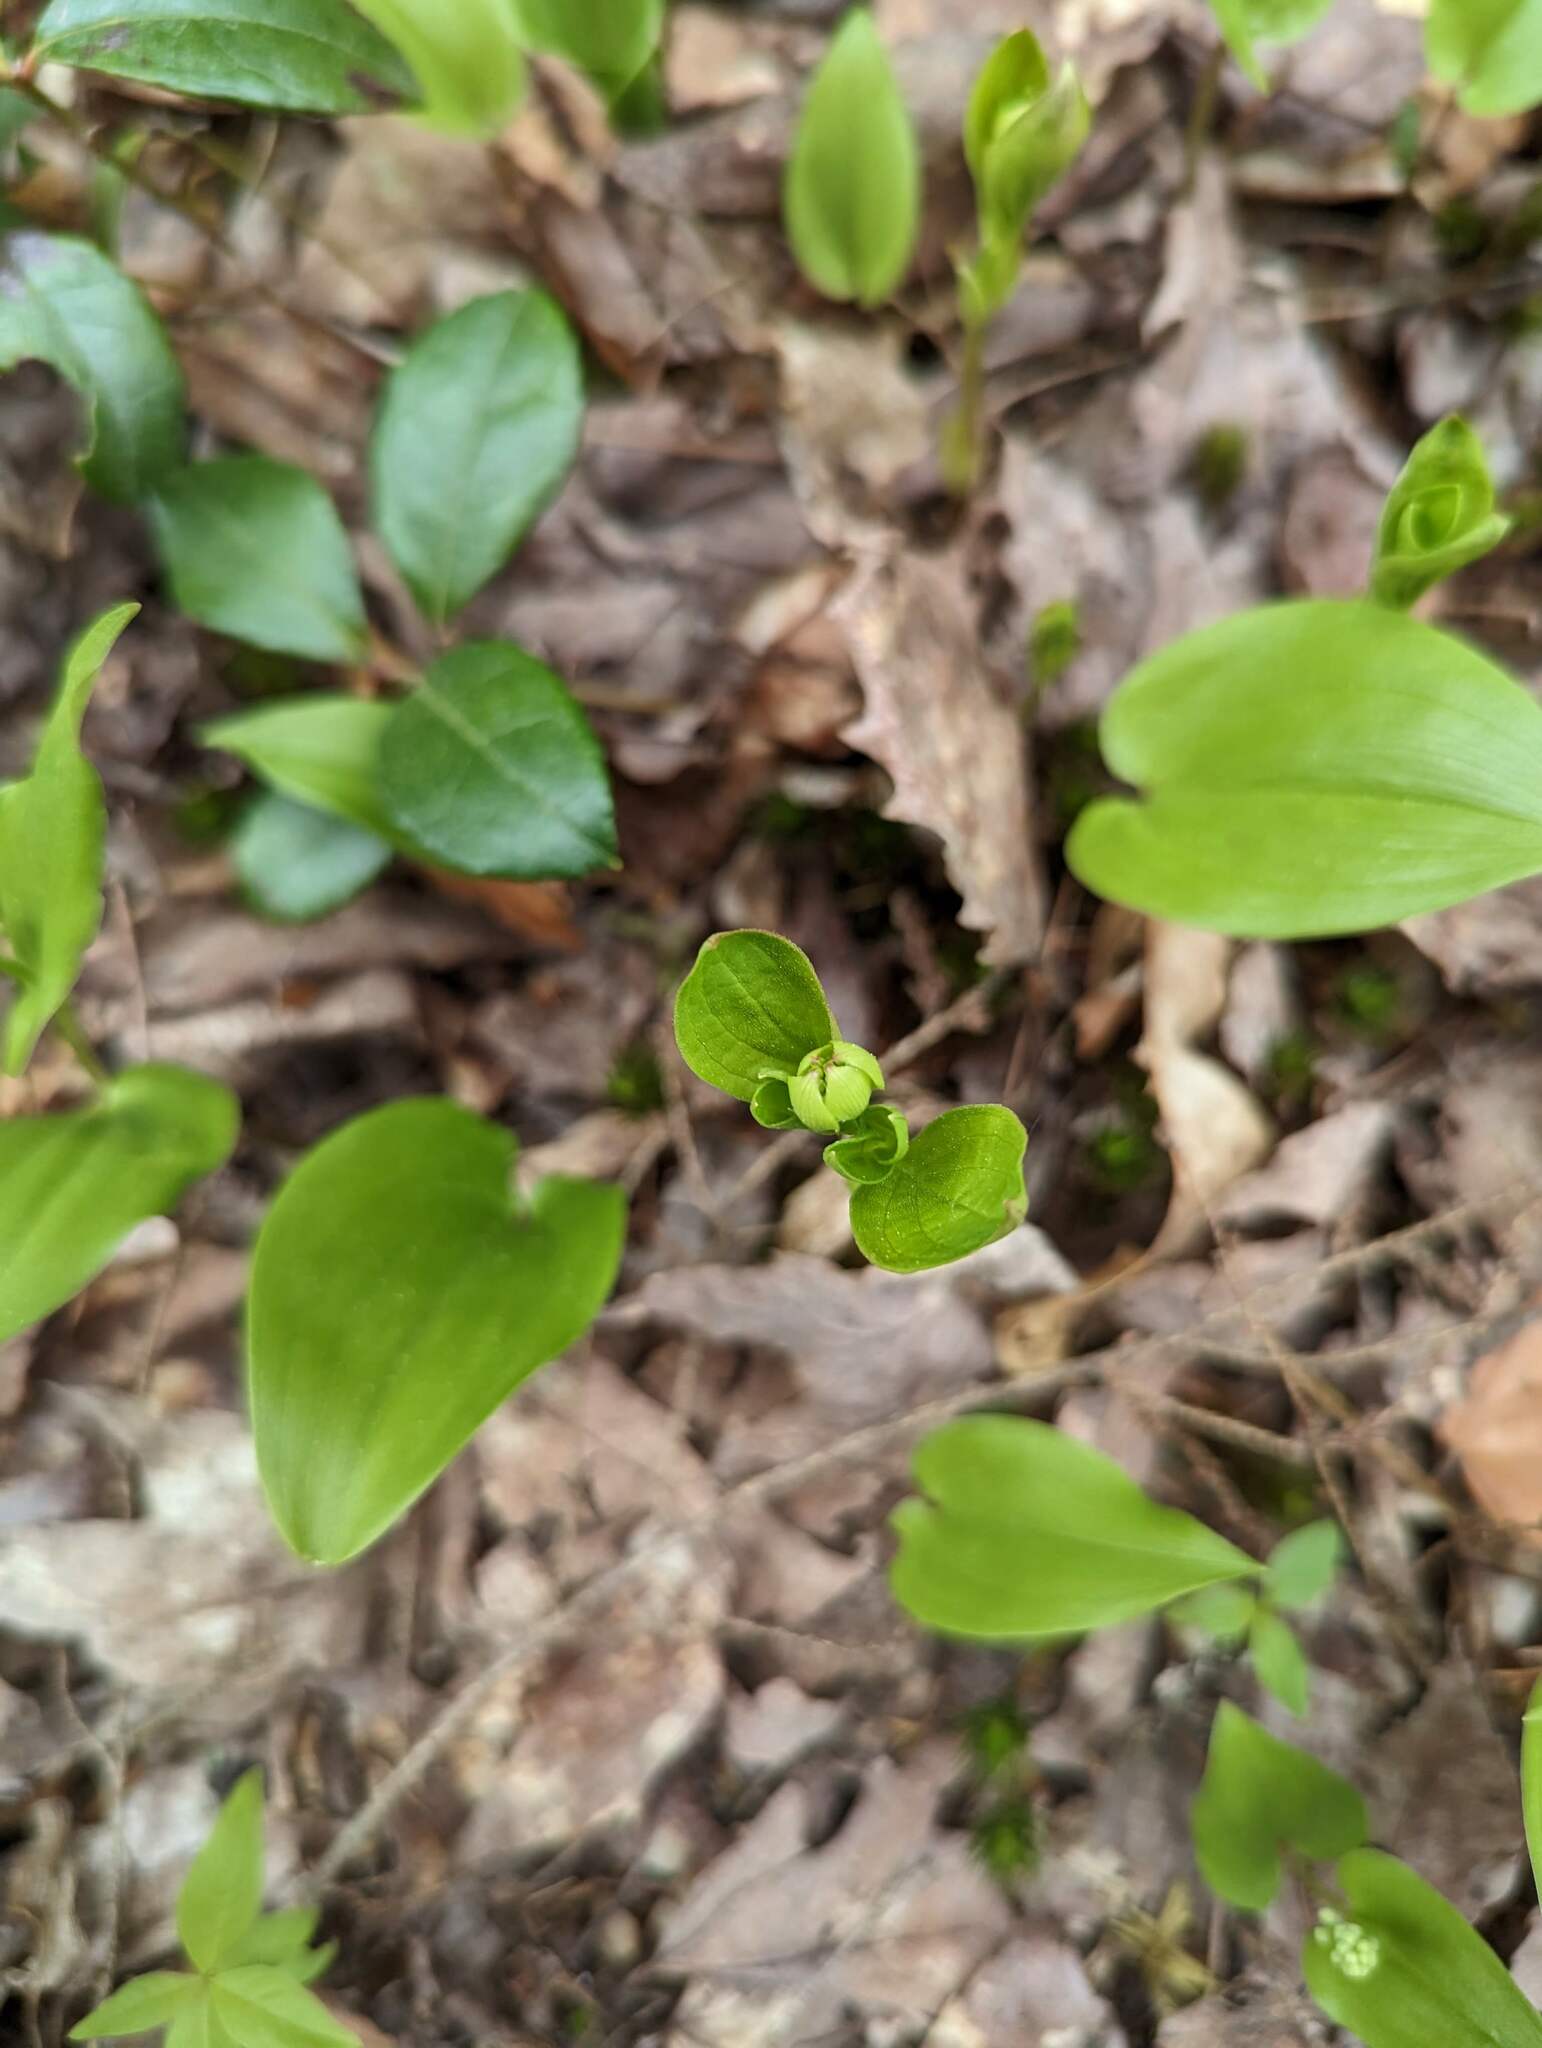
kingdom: Plantae
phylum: Tracheophyta
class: Magnoliopsida
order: Cornales
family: Cornaceae
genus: Cornus
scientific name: Cornus canadensis
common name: Creeping dogwood
